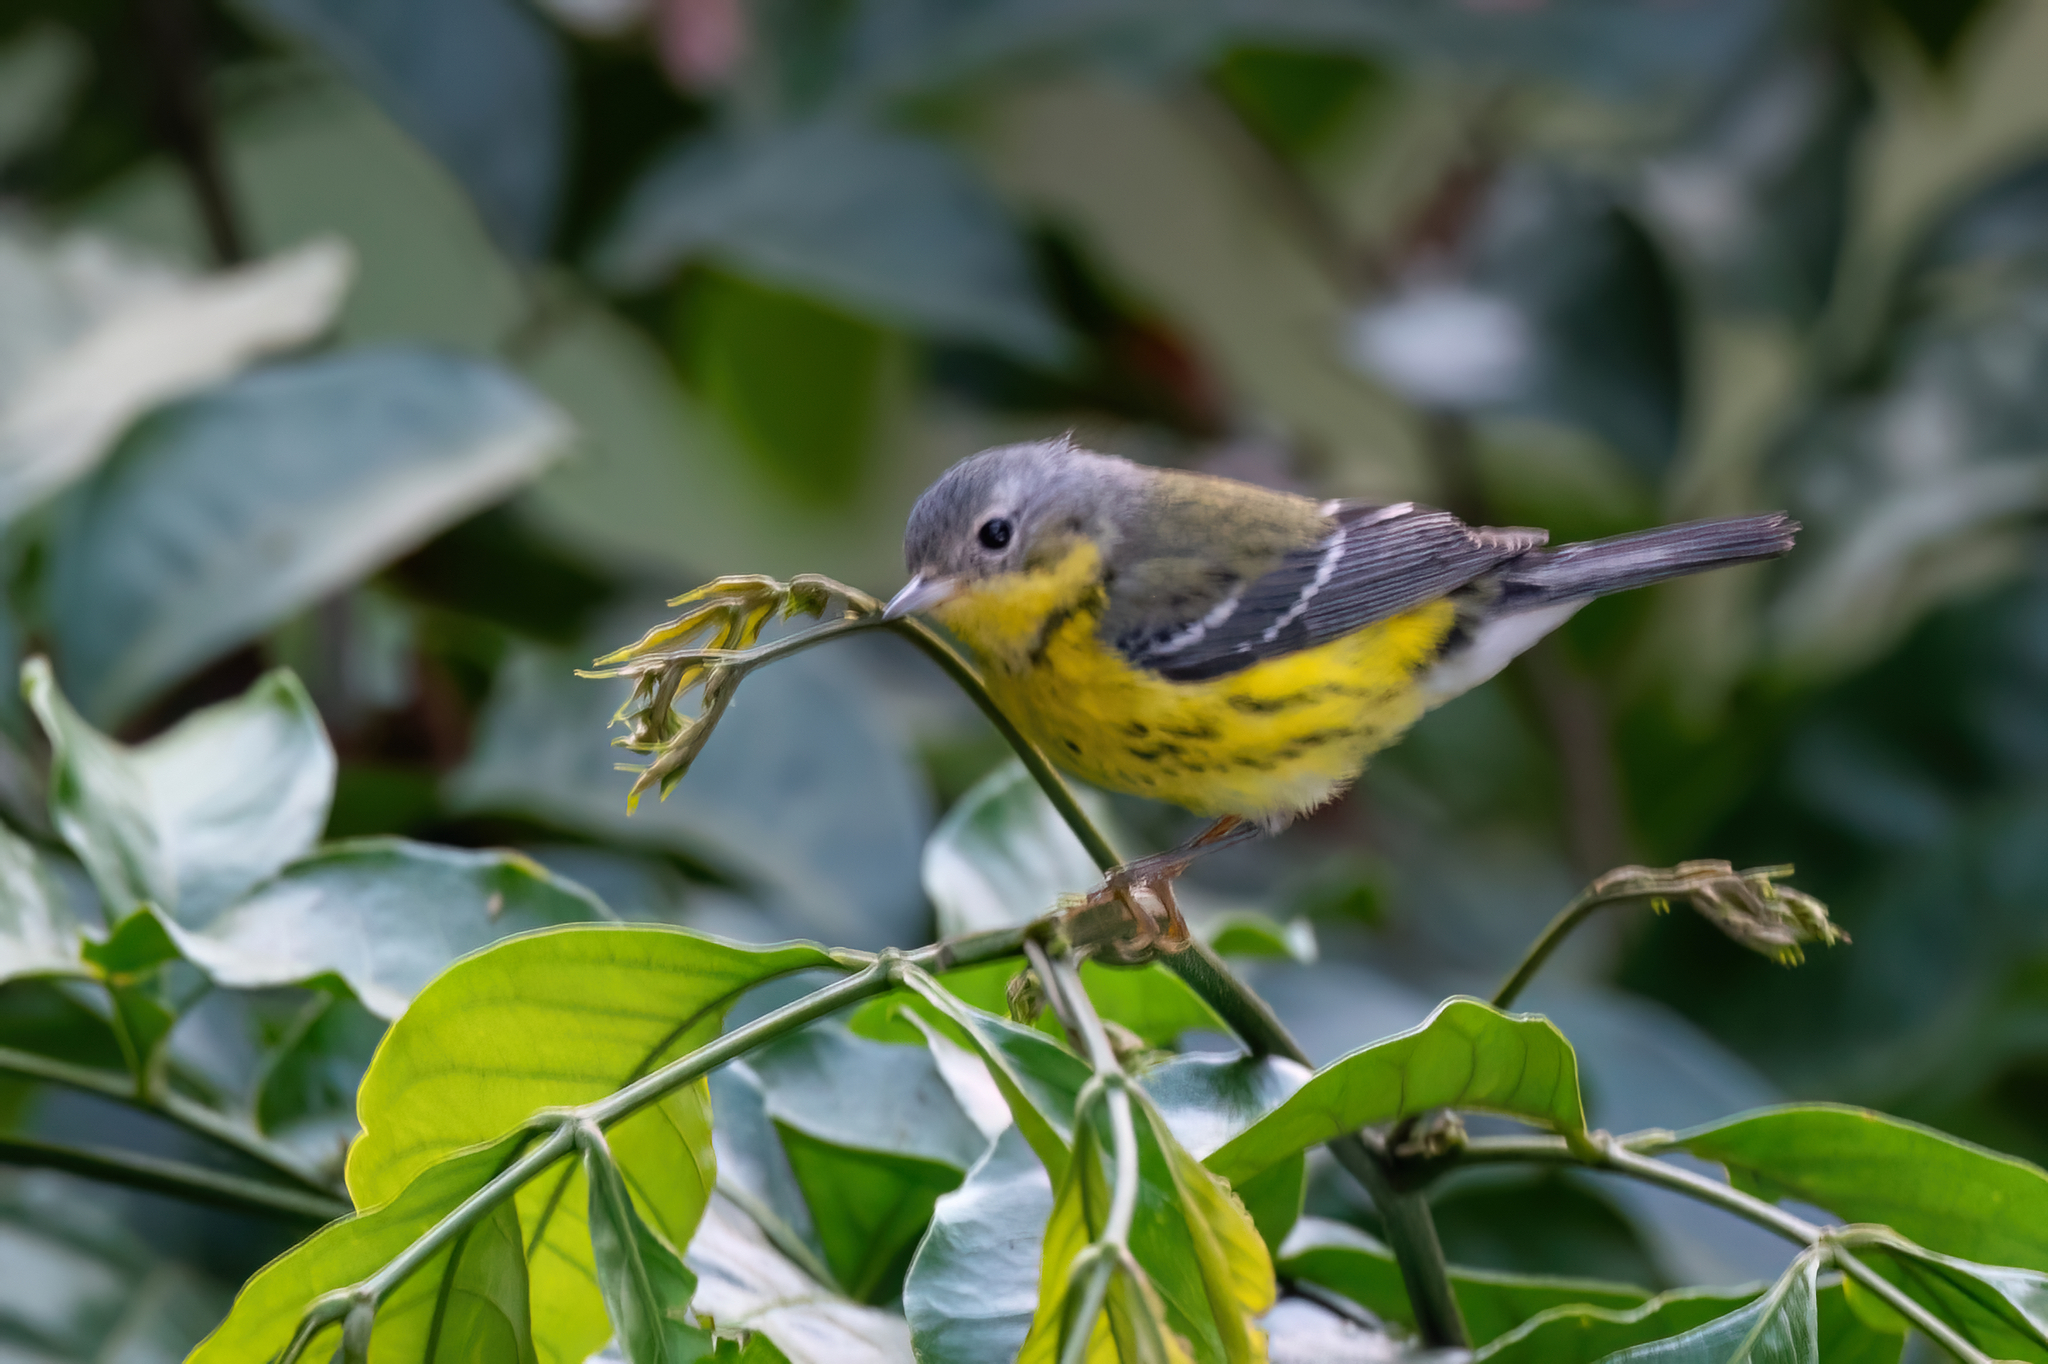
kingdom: Animalia
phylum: Chordata
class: Aves
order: Passeriformes
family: Parulidae
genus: Setophaga
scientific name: Setophaga magnolia
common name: Magnolia warbler
